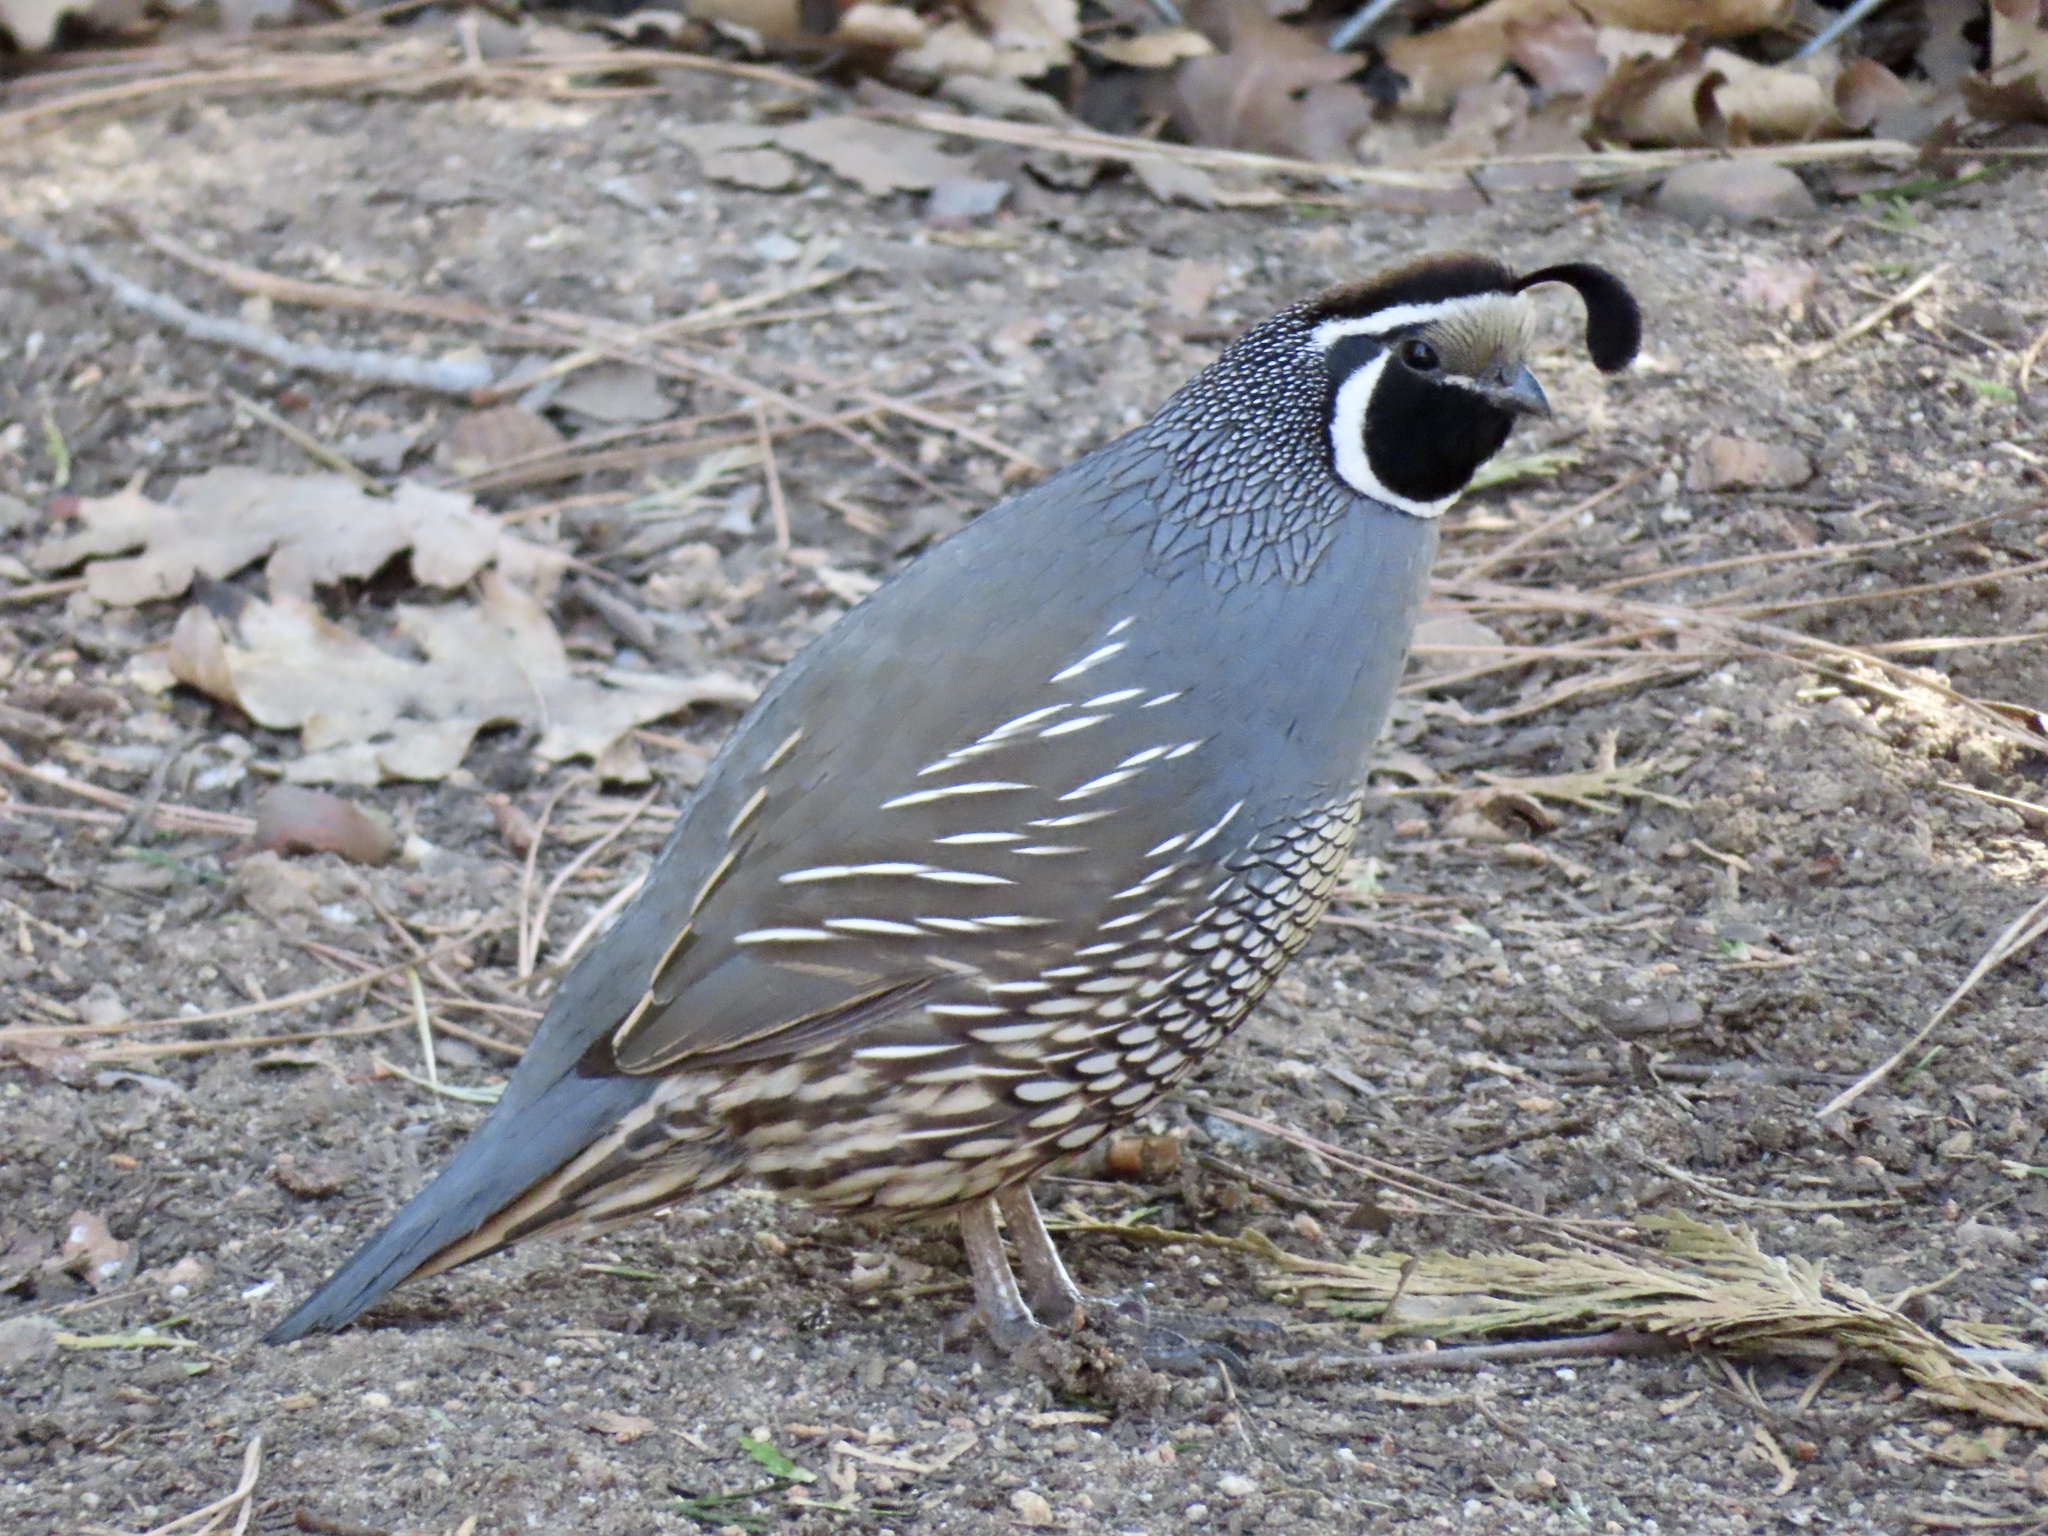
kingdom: Animalia
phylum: Chordata
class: Aves
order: Galliformes
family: Odontophoridae
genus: Callipepla
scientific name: Callipepla californica
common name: California quail
